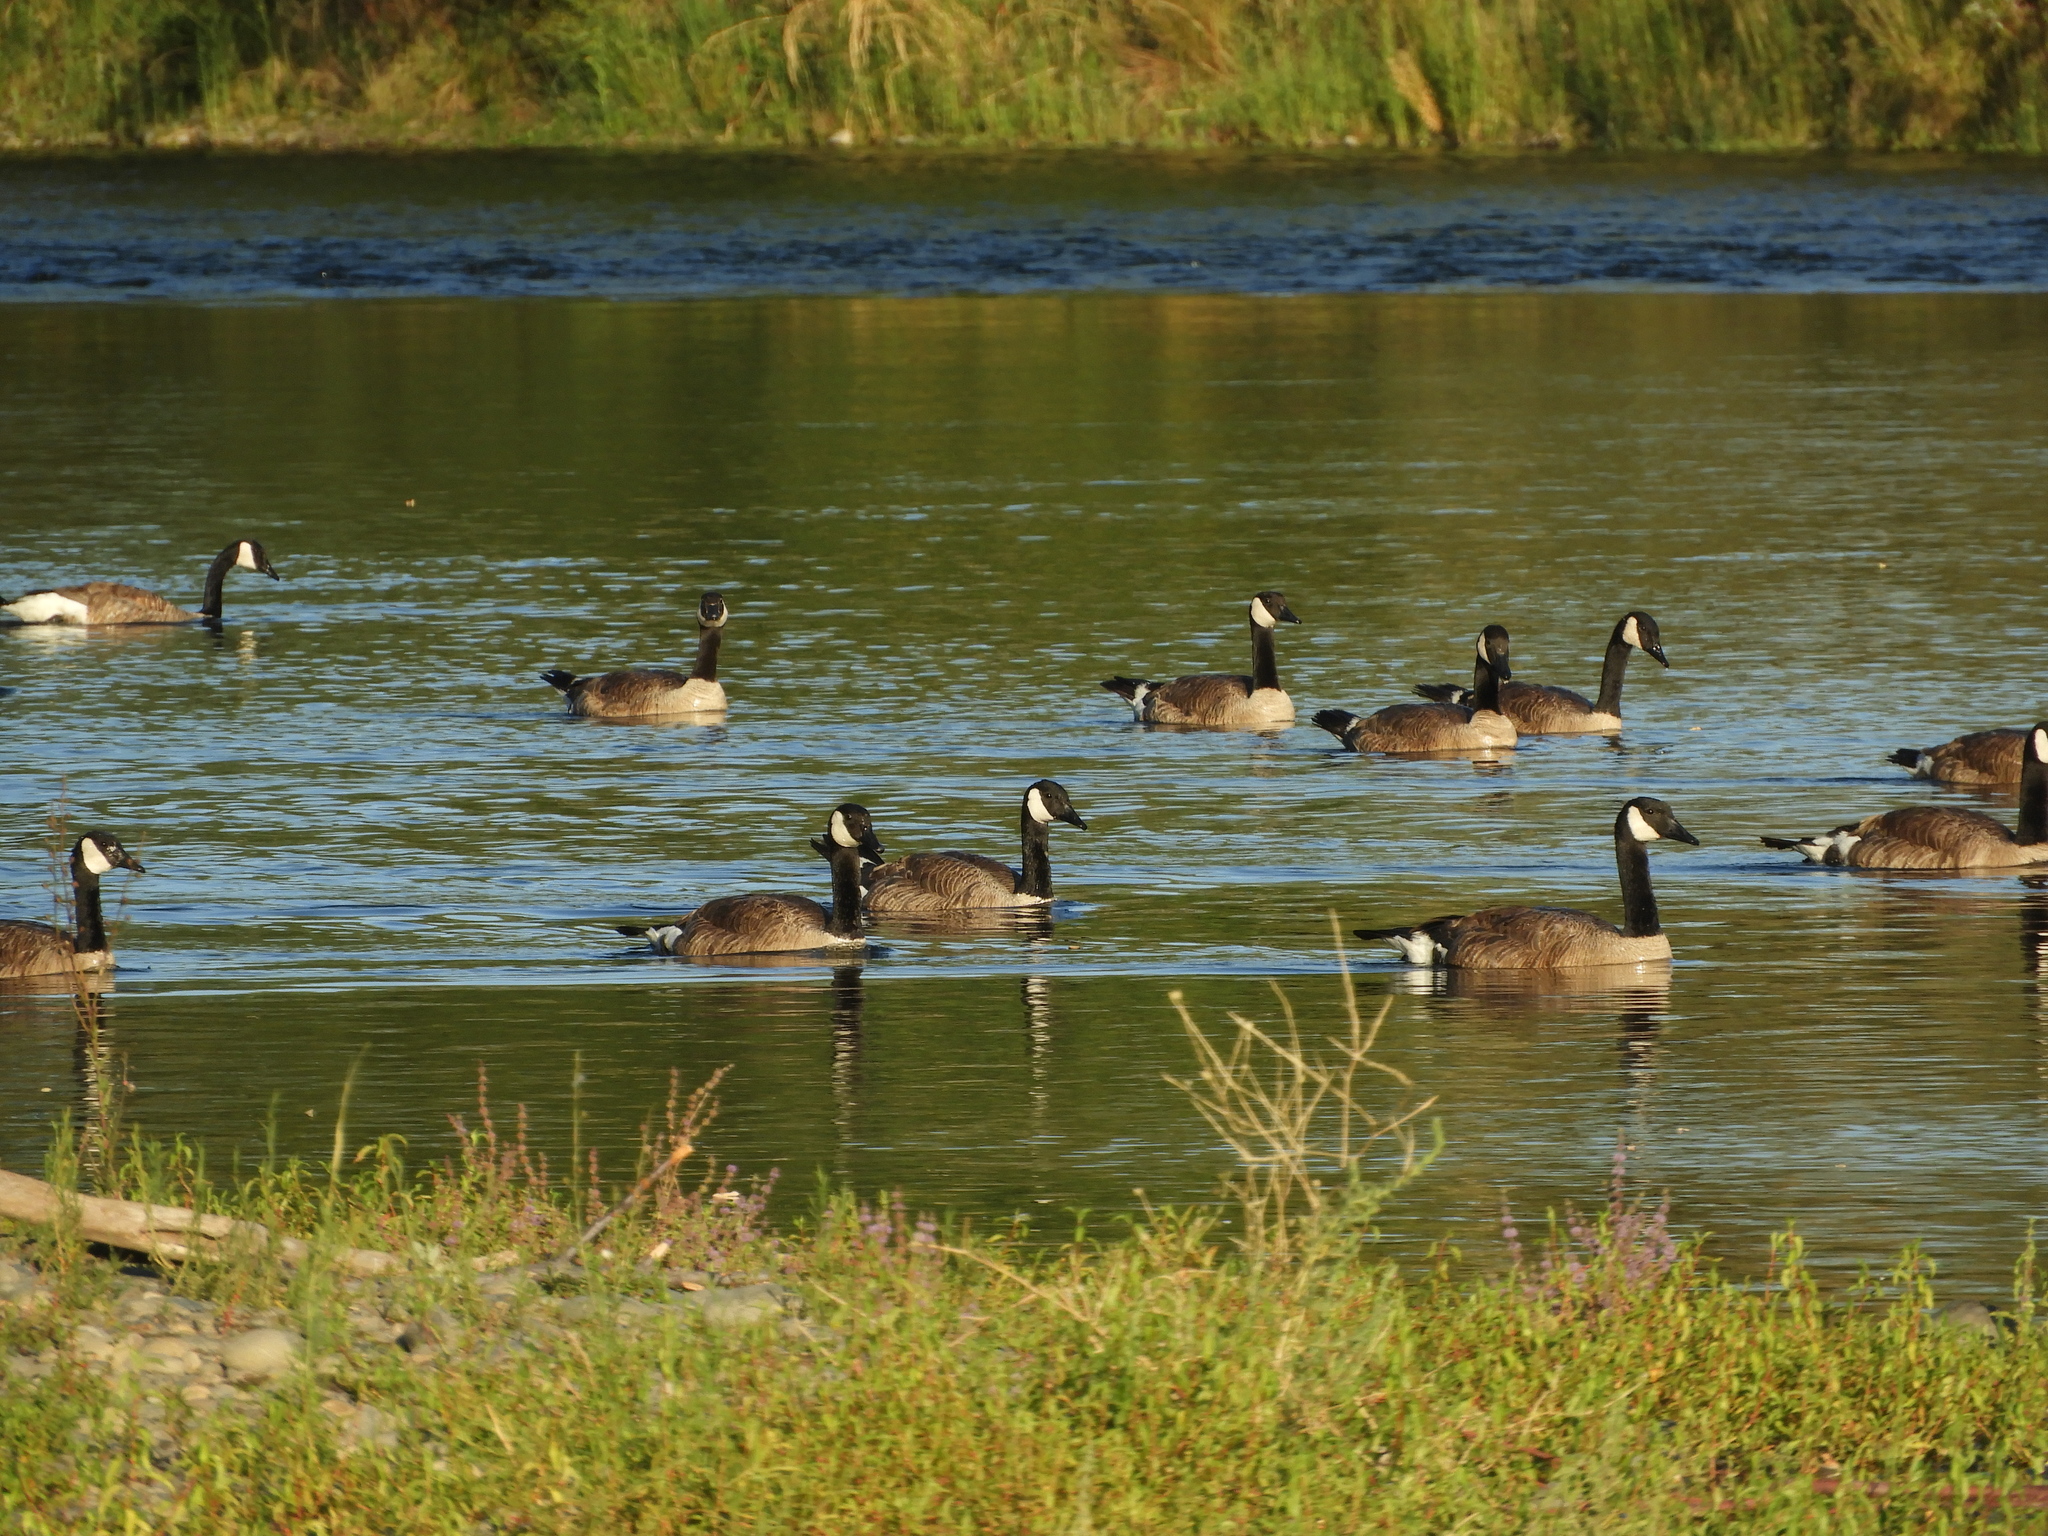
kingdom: Animalia
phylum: Chordata
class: Aves
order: Anseriformes
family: Anatidae
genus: Branta
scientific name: Branta canadensis
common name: Canada goose
